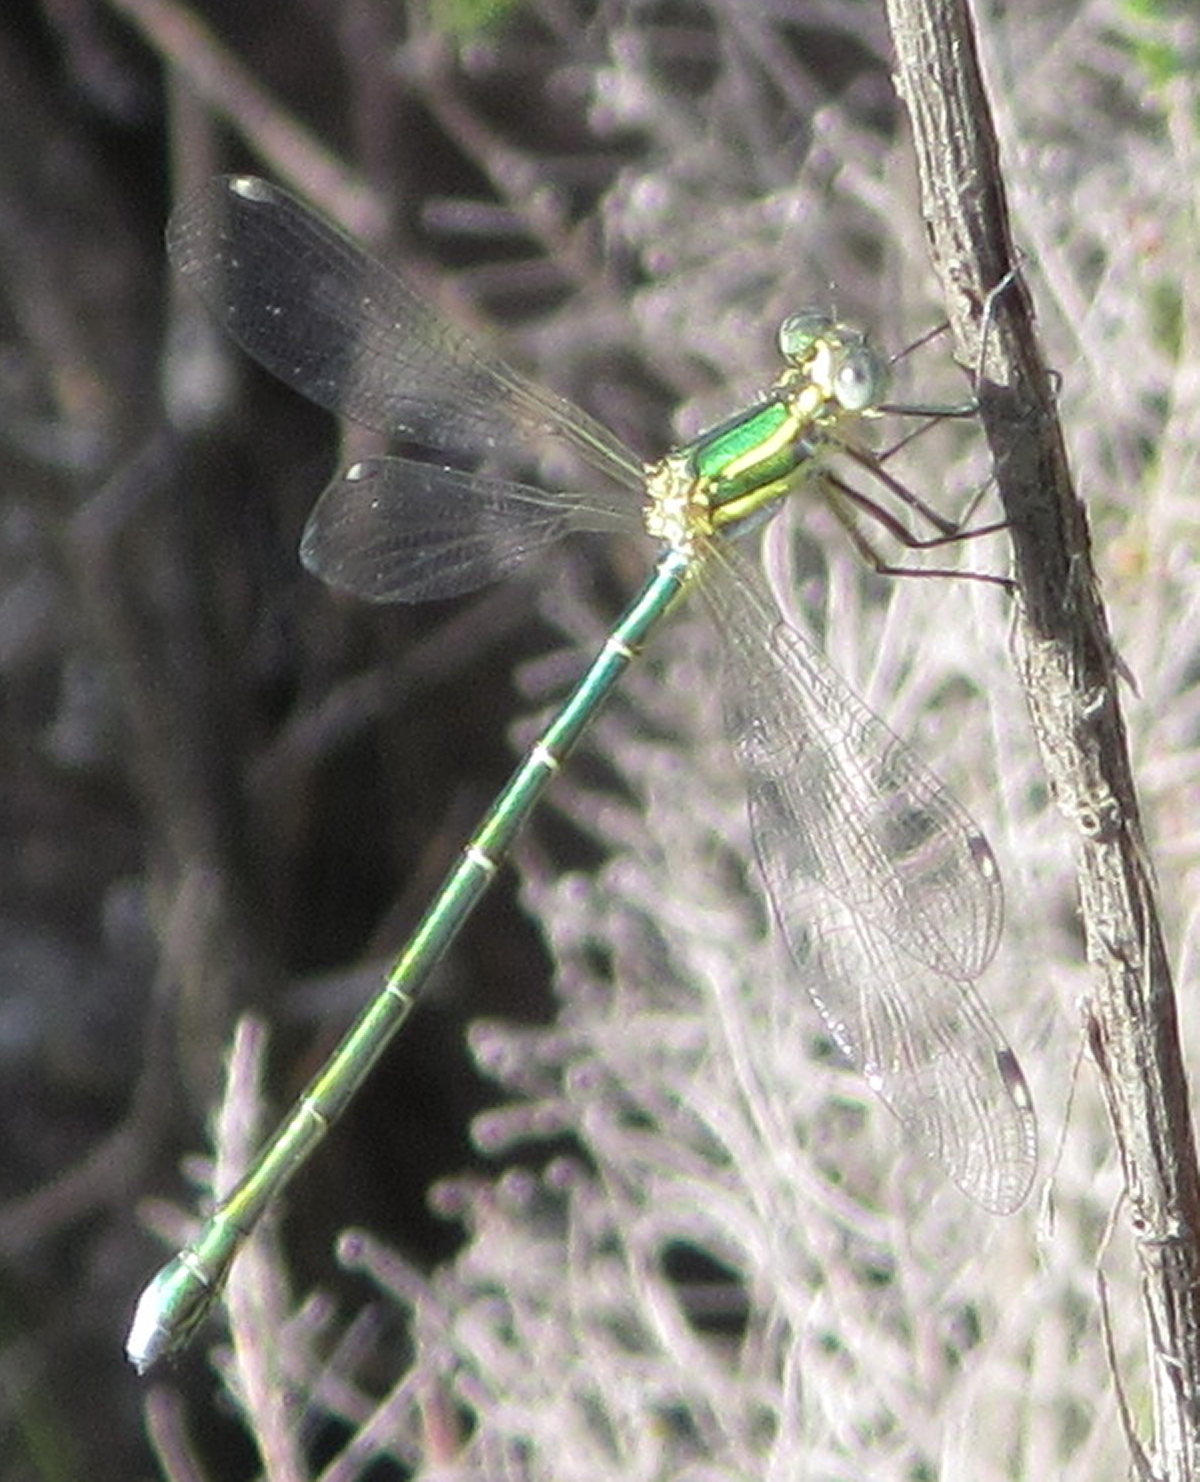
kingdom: Animalia
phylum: Arthropoda
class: Insecta
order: Odonata
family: Synlestidae
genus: Chlorolestes
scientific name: Chlorolestes fasciatus
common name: Mountain malachite
